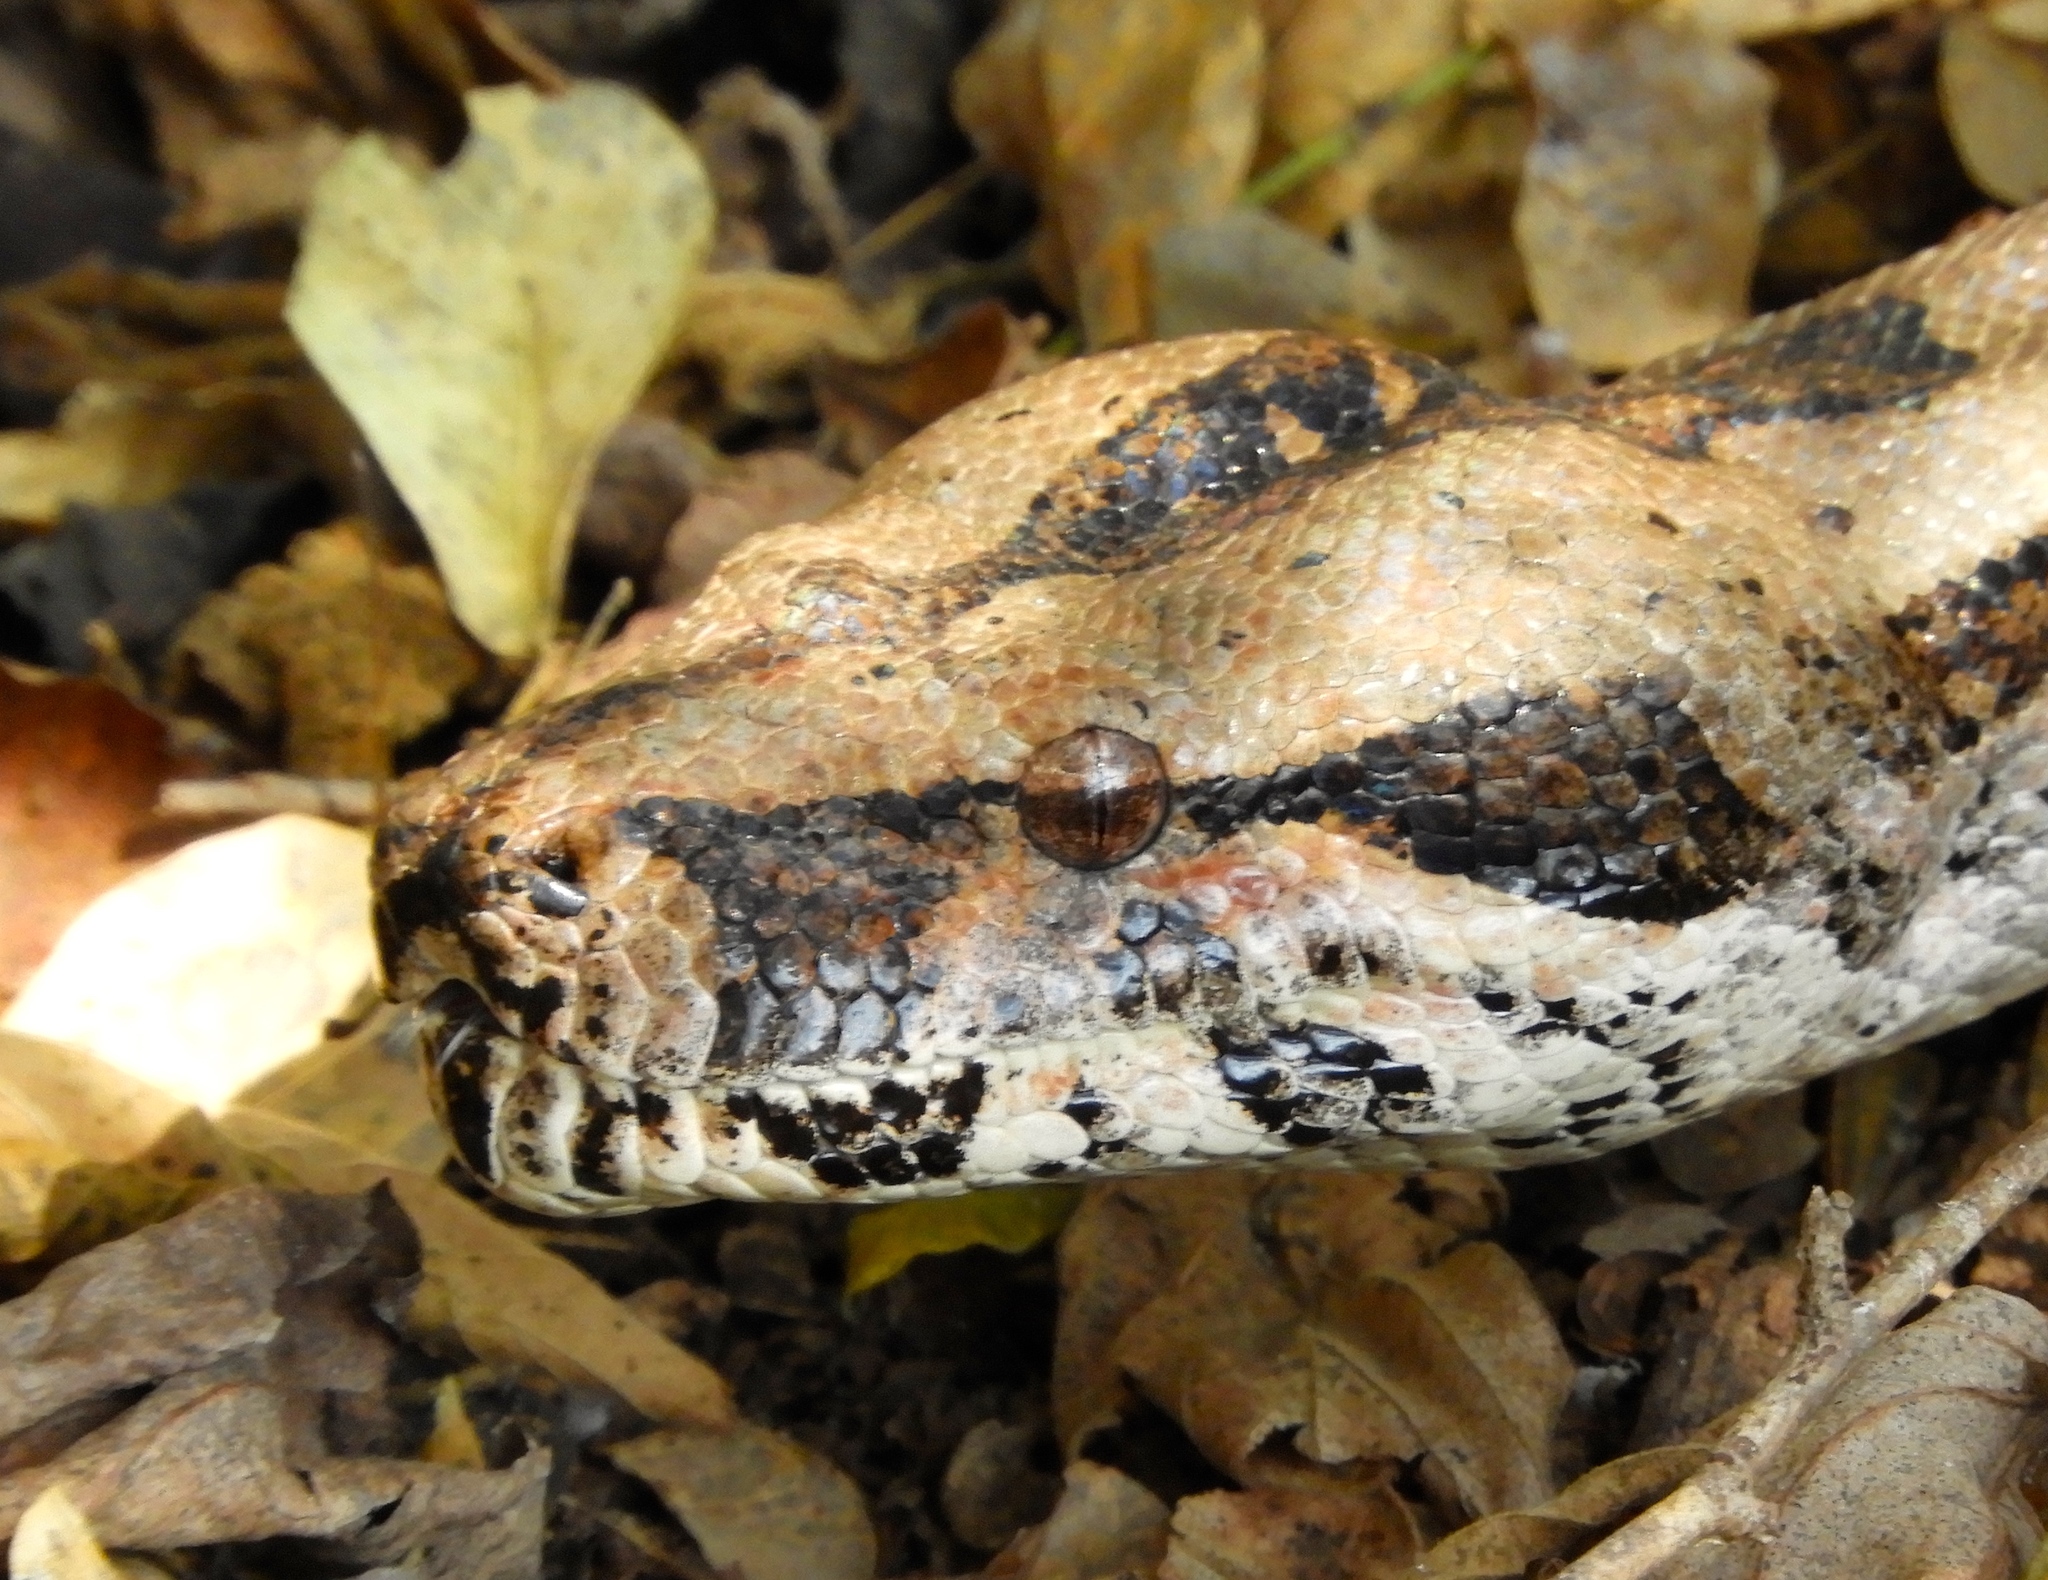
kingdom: Animalia
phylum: Chordata
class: Squamata
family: Boidae
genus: Boa
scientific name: Boa
